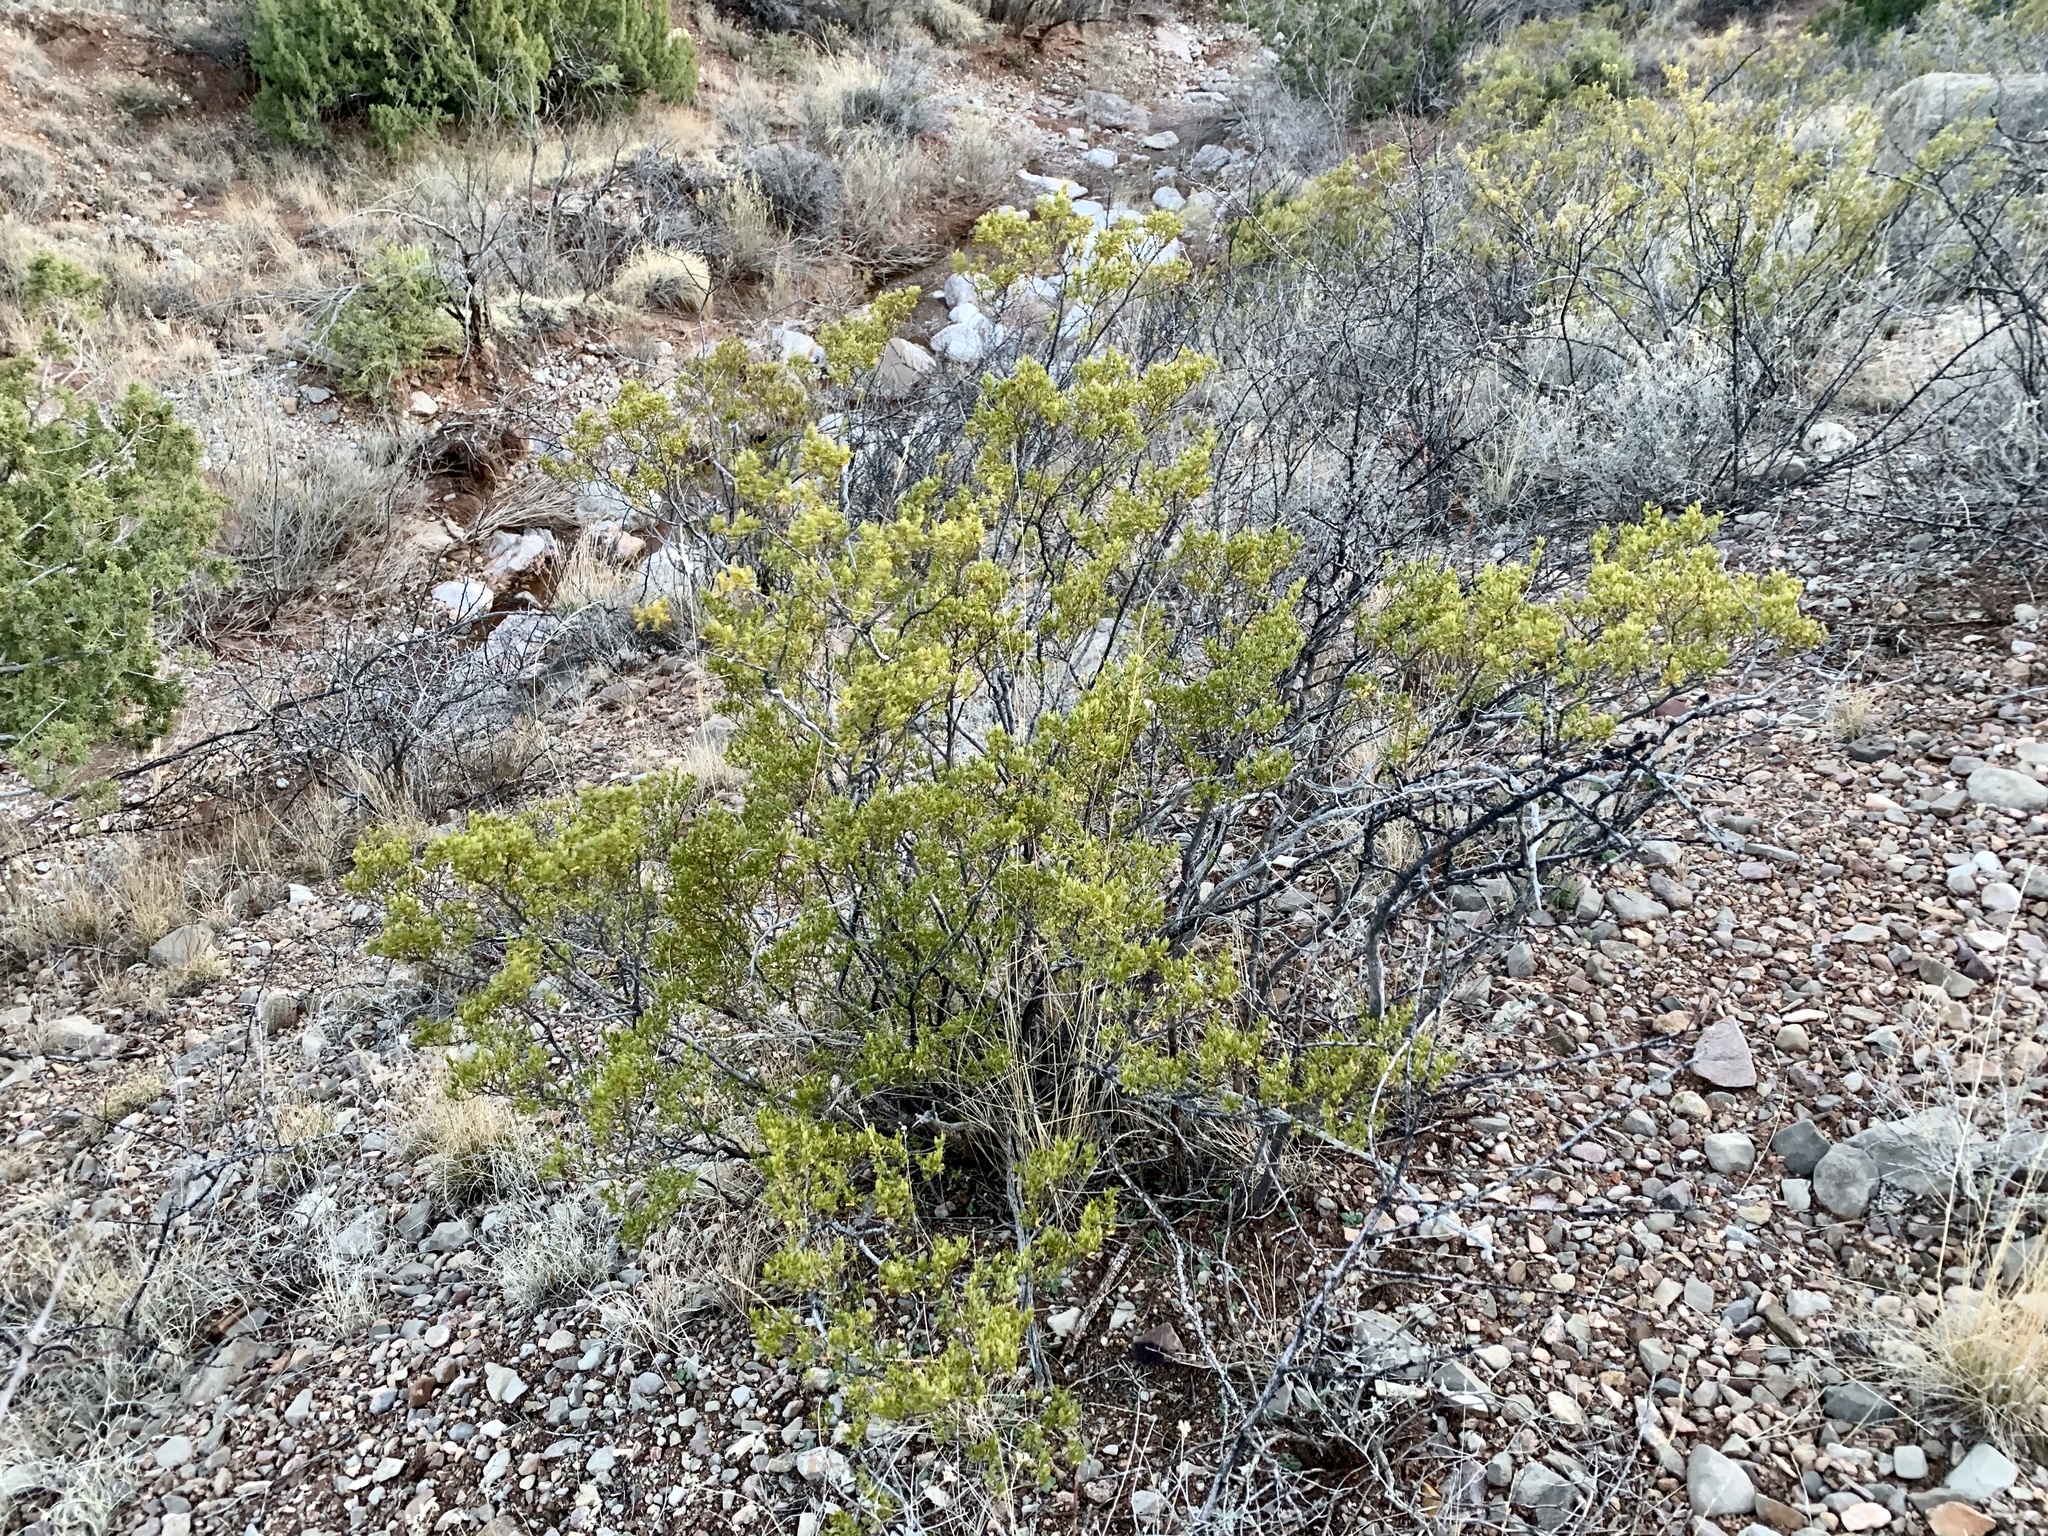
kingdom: Plantae
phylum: Tracheophyta
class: Magnoliopsida
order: Zygophyllales
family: Zygophyllaceae
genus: Larrea
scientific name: Larrea tridentata
